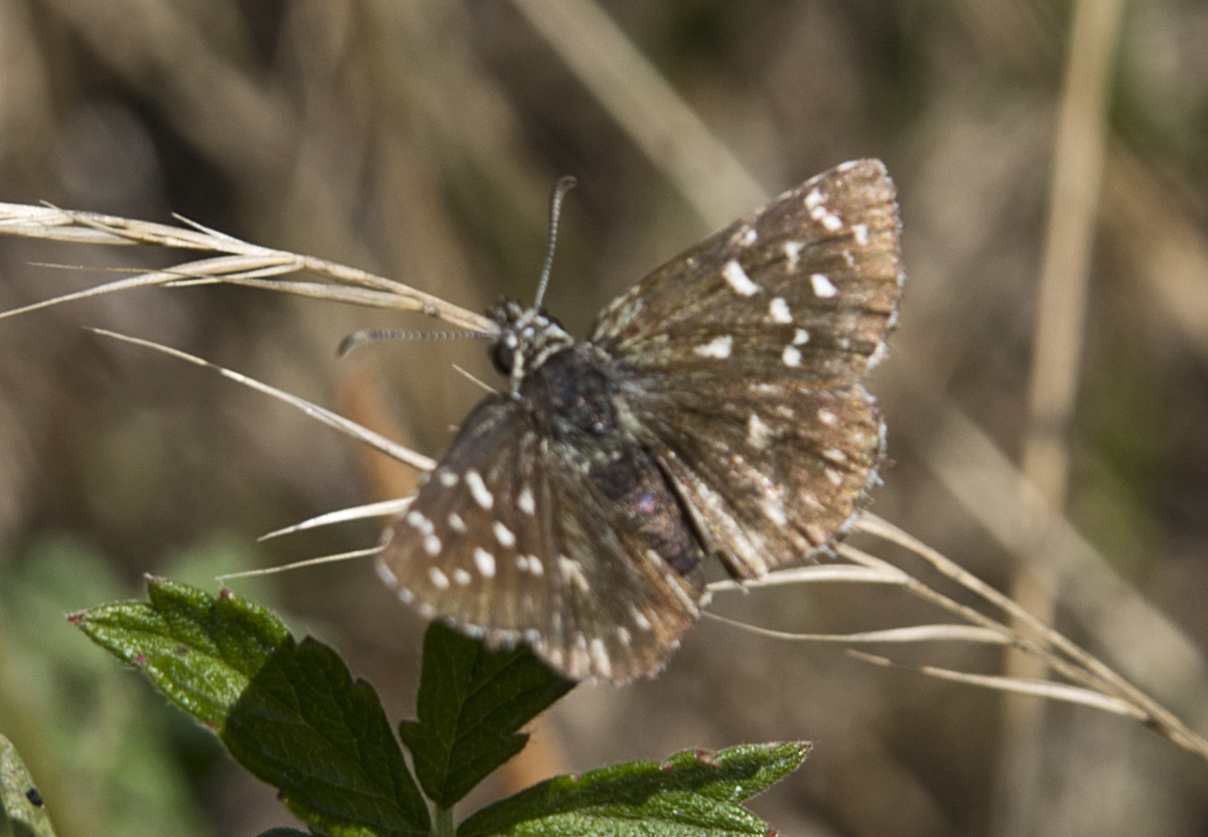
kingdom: Animalia
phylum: Arthropoda
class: Insecta
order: Lepidoptera
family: Hesperiidae
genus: Pyrgus
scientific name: Pyrgus malvae
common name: Grizzled skipper
